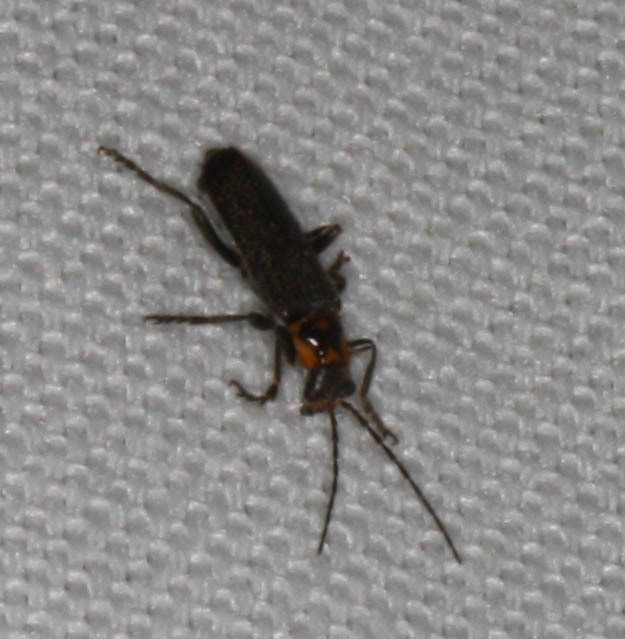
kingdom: Animalia
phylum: Arthropoda
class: Insecta
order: Coleoptera
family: Cantharidae
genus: Cyrtomoptera
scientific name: Cyrtomoptera divisa
